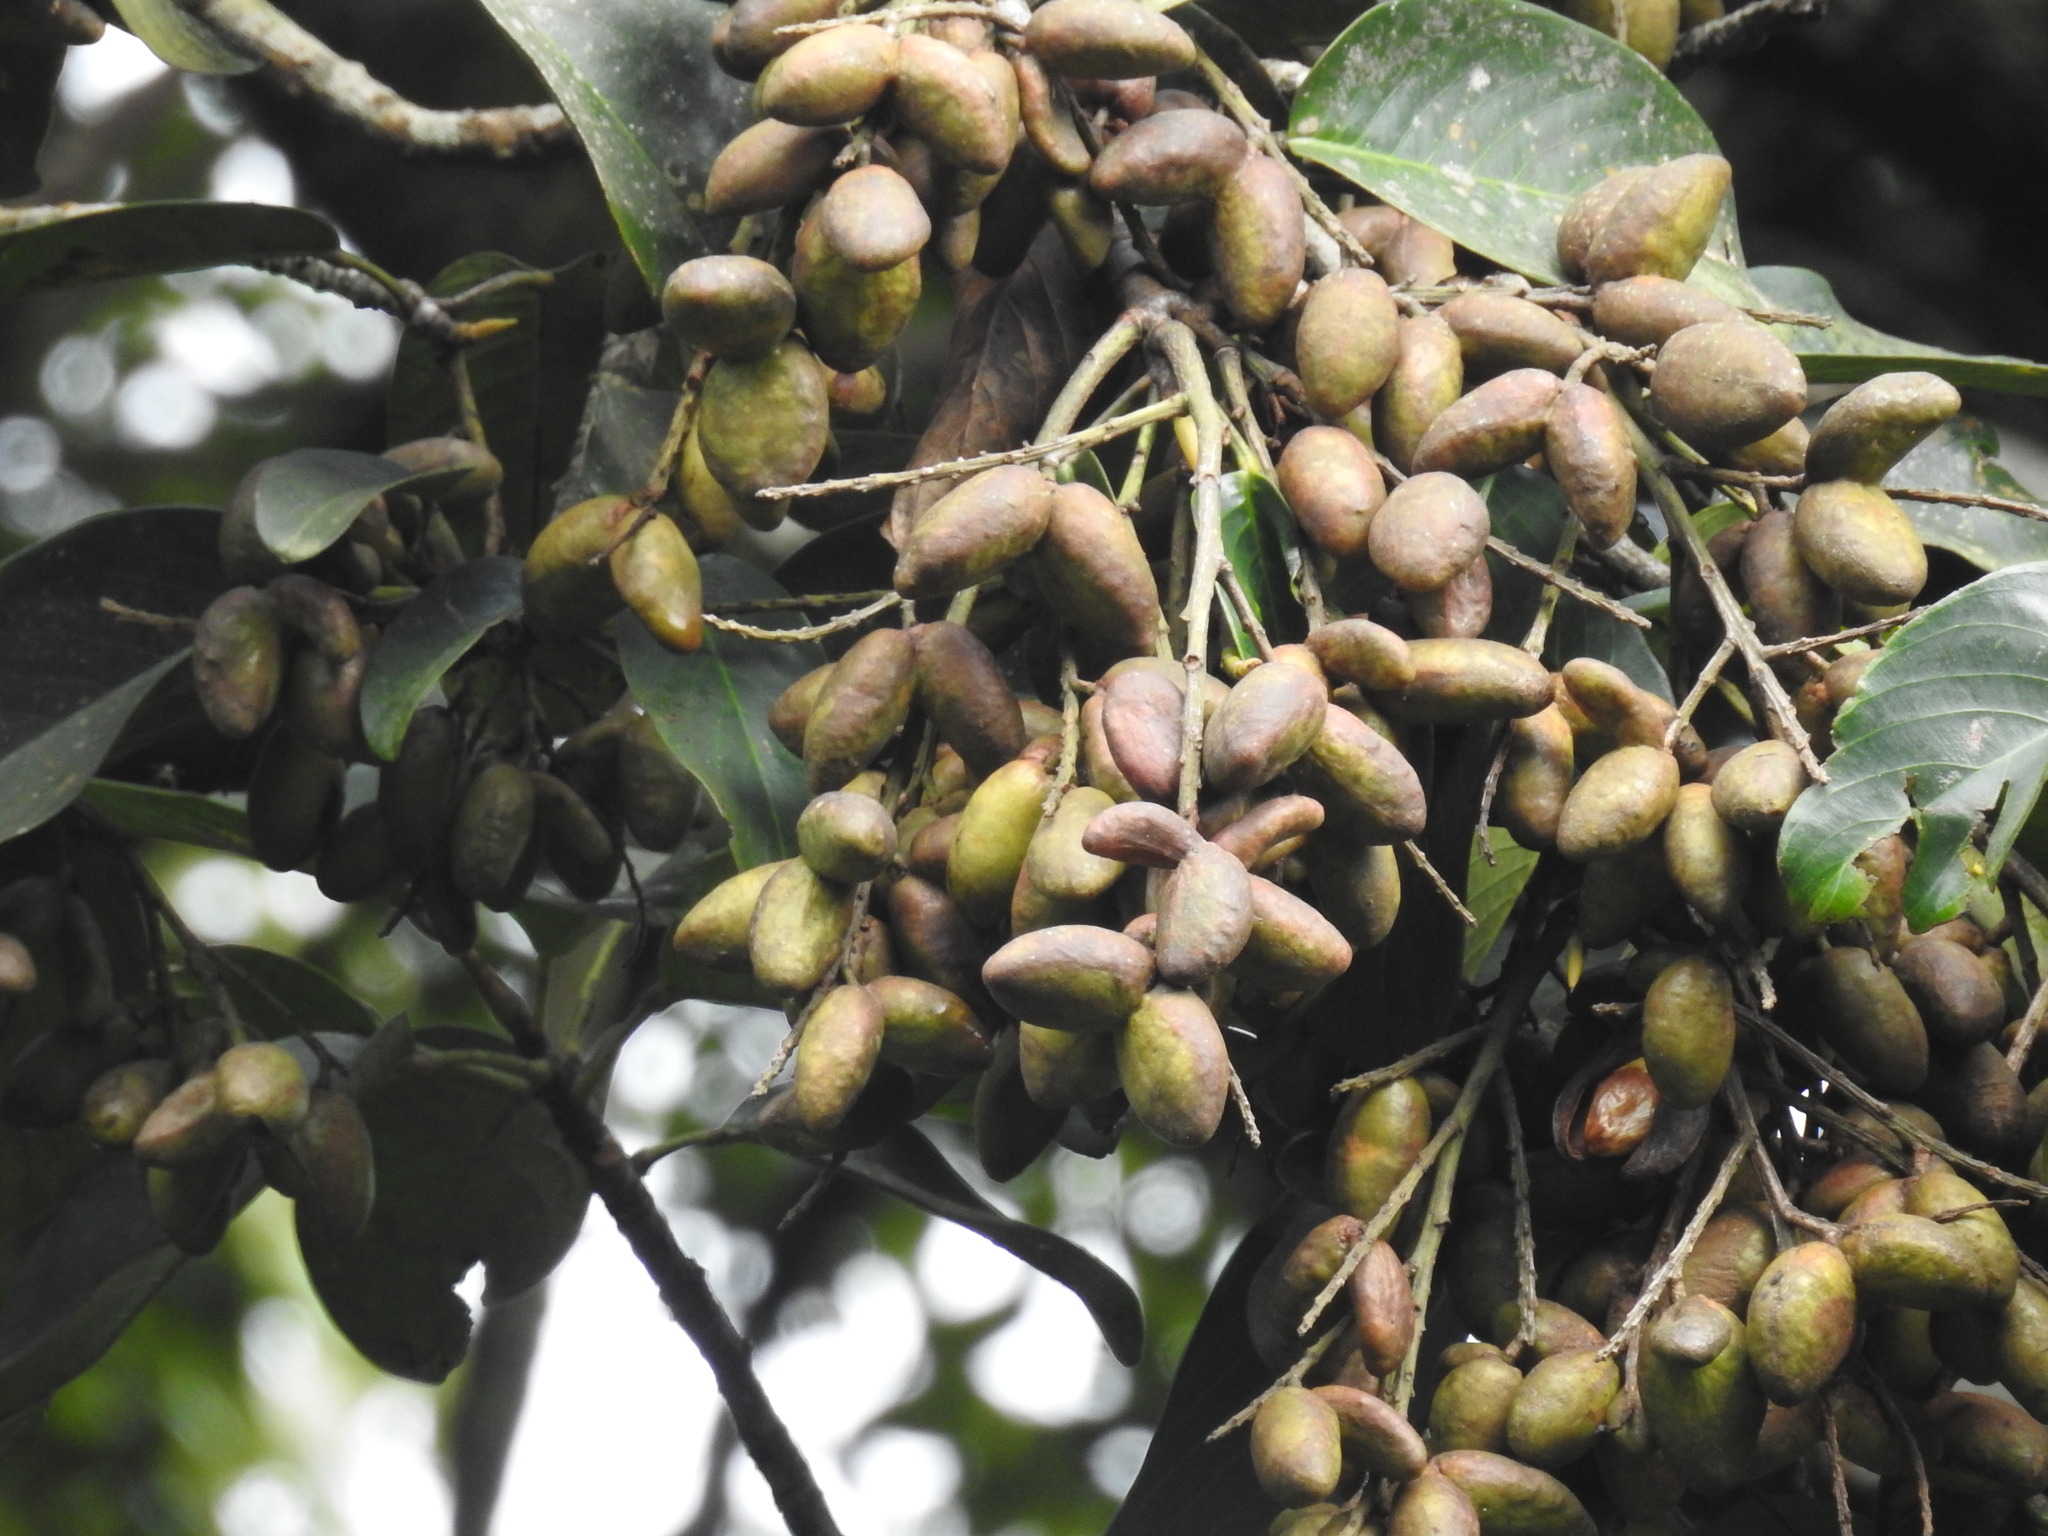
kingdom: Plantae
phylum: Tracheophyta
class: Magnoliopsida
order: Malpighiales
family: Centroplacaceae
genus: Bhesa
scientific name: Bhesa indica
